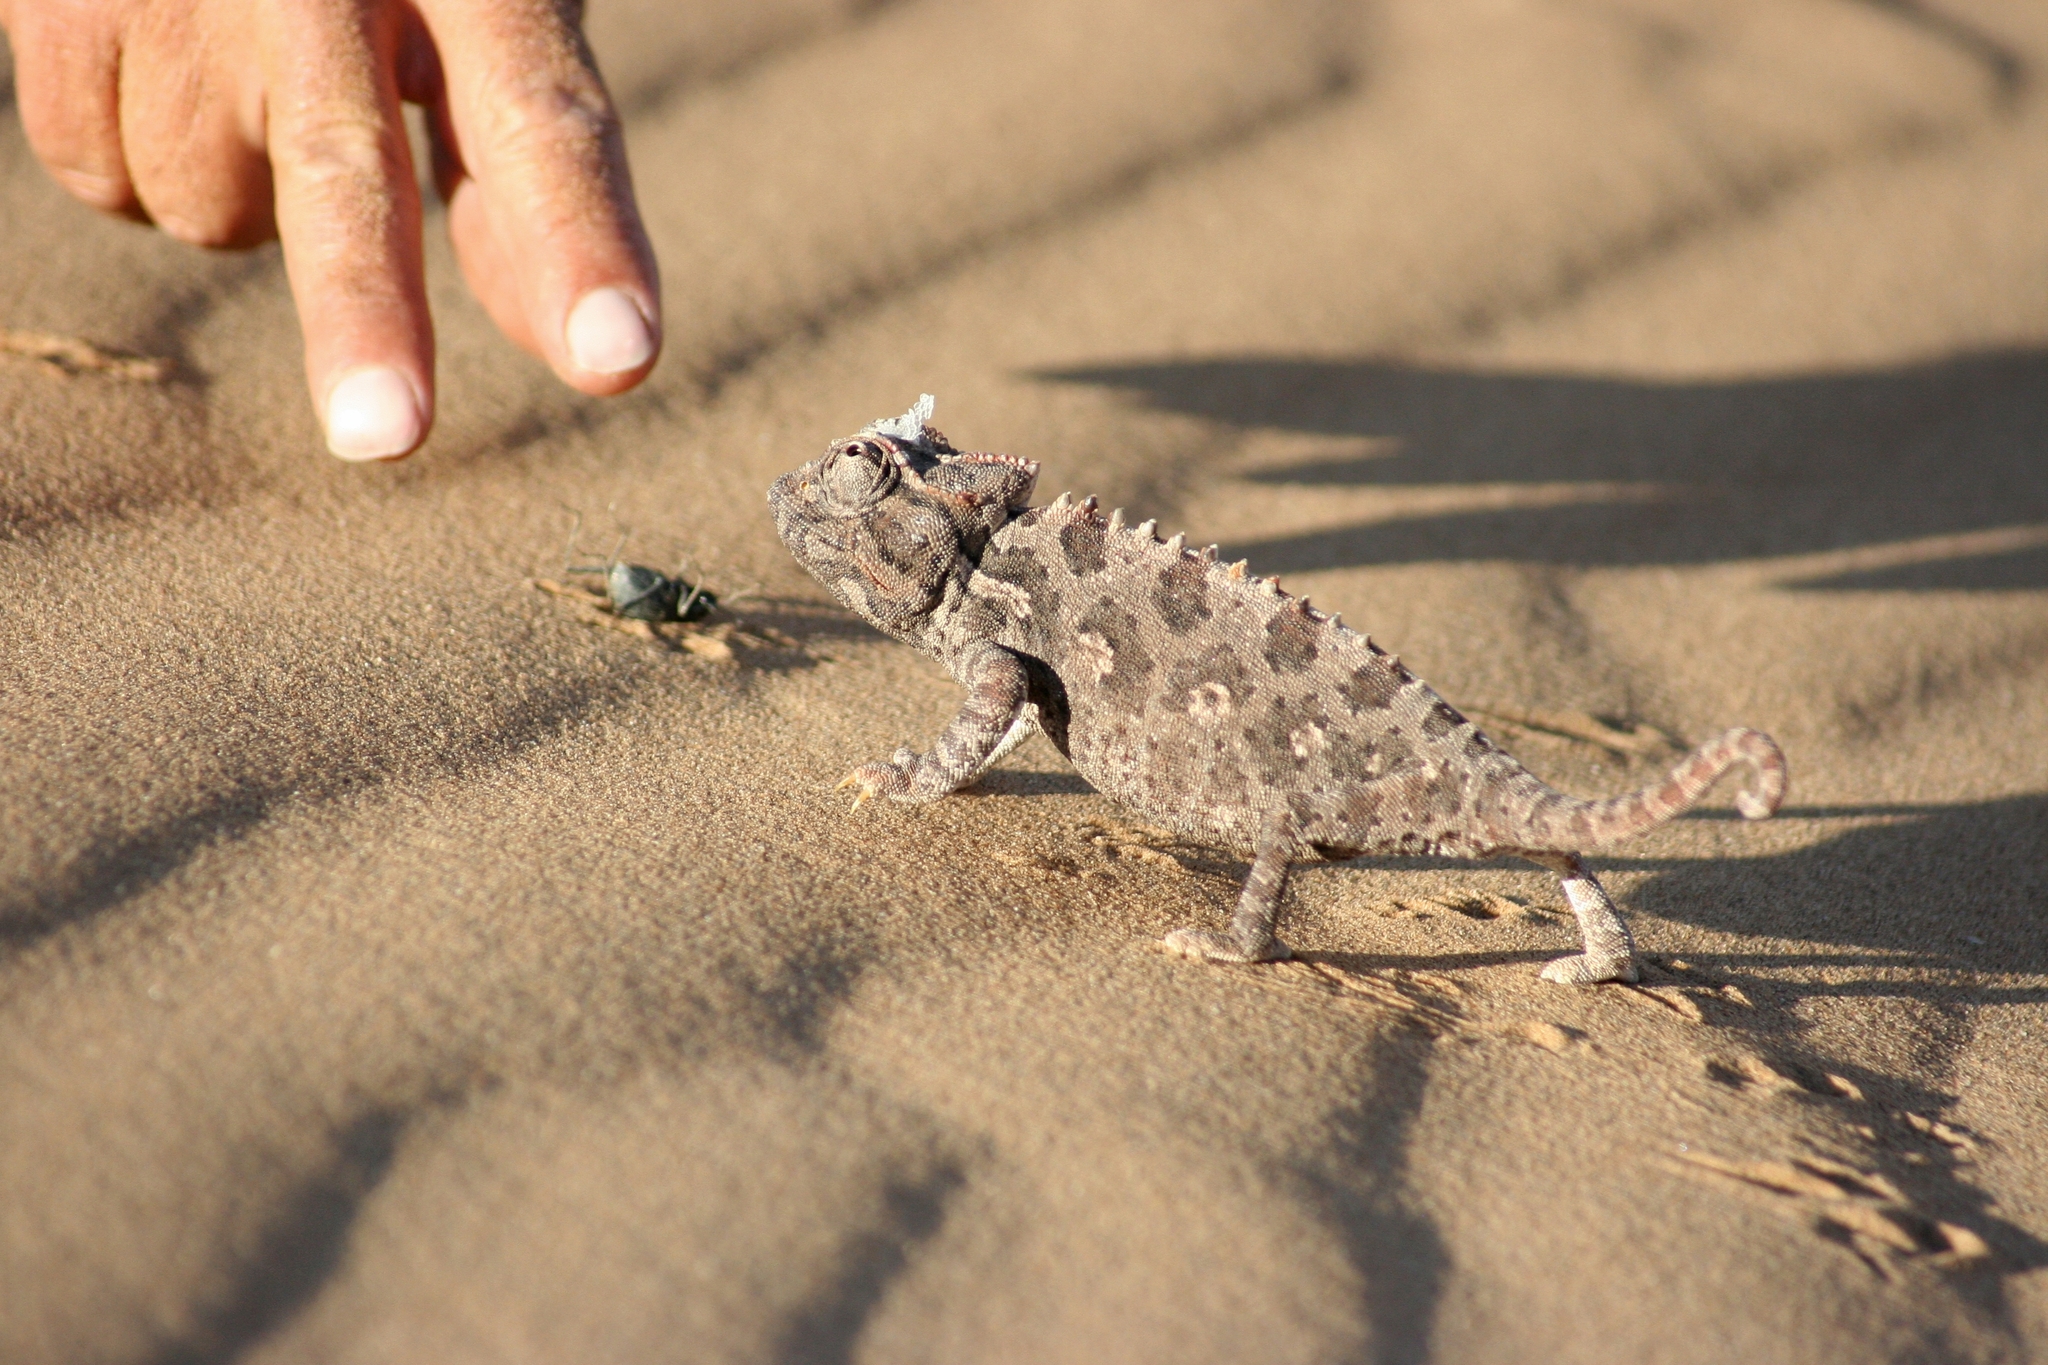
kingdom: Animalia
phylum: Chordata
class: Squamata
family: Chamaeleonidae
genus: Chamaeleo
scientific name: Chamaeleo namaquensis
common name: Namaqua chameleon
